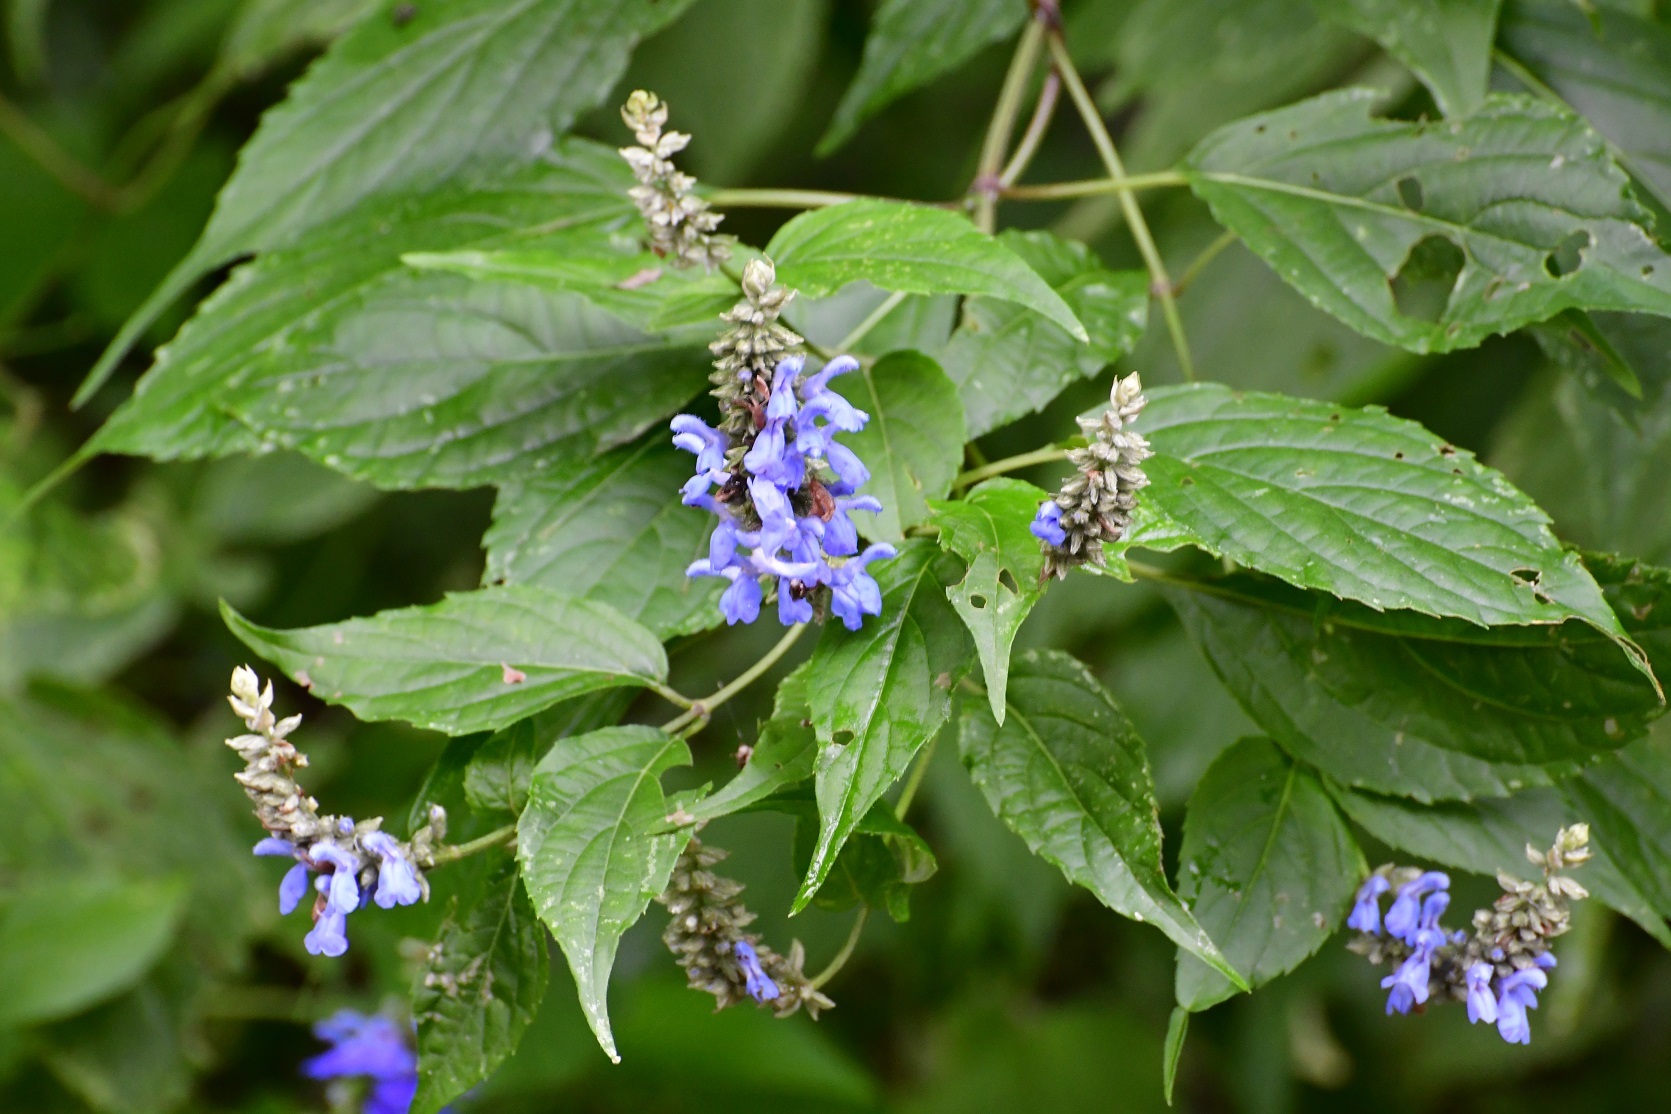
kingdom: Plantae
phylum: Tracheophyta
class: Magnoliopsida
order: Lamiales
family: Lamiaceae
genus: Salvia
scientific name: Salvia connivens
